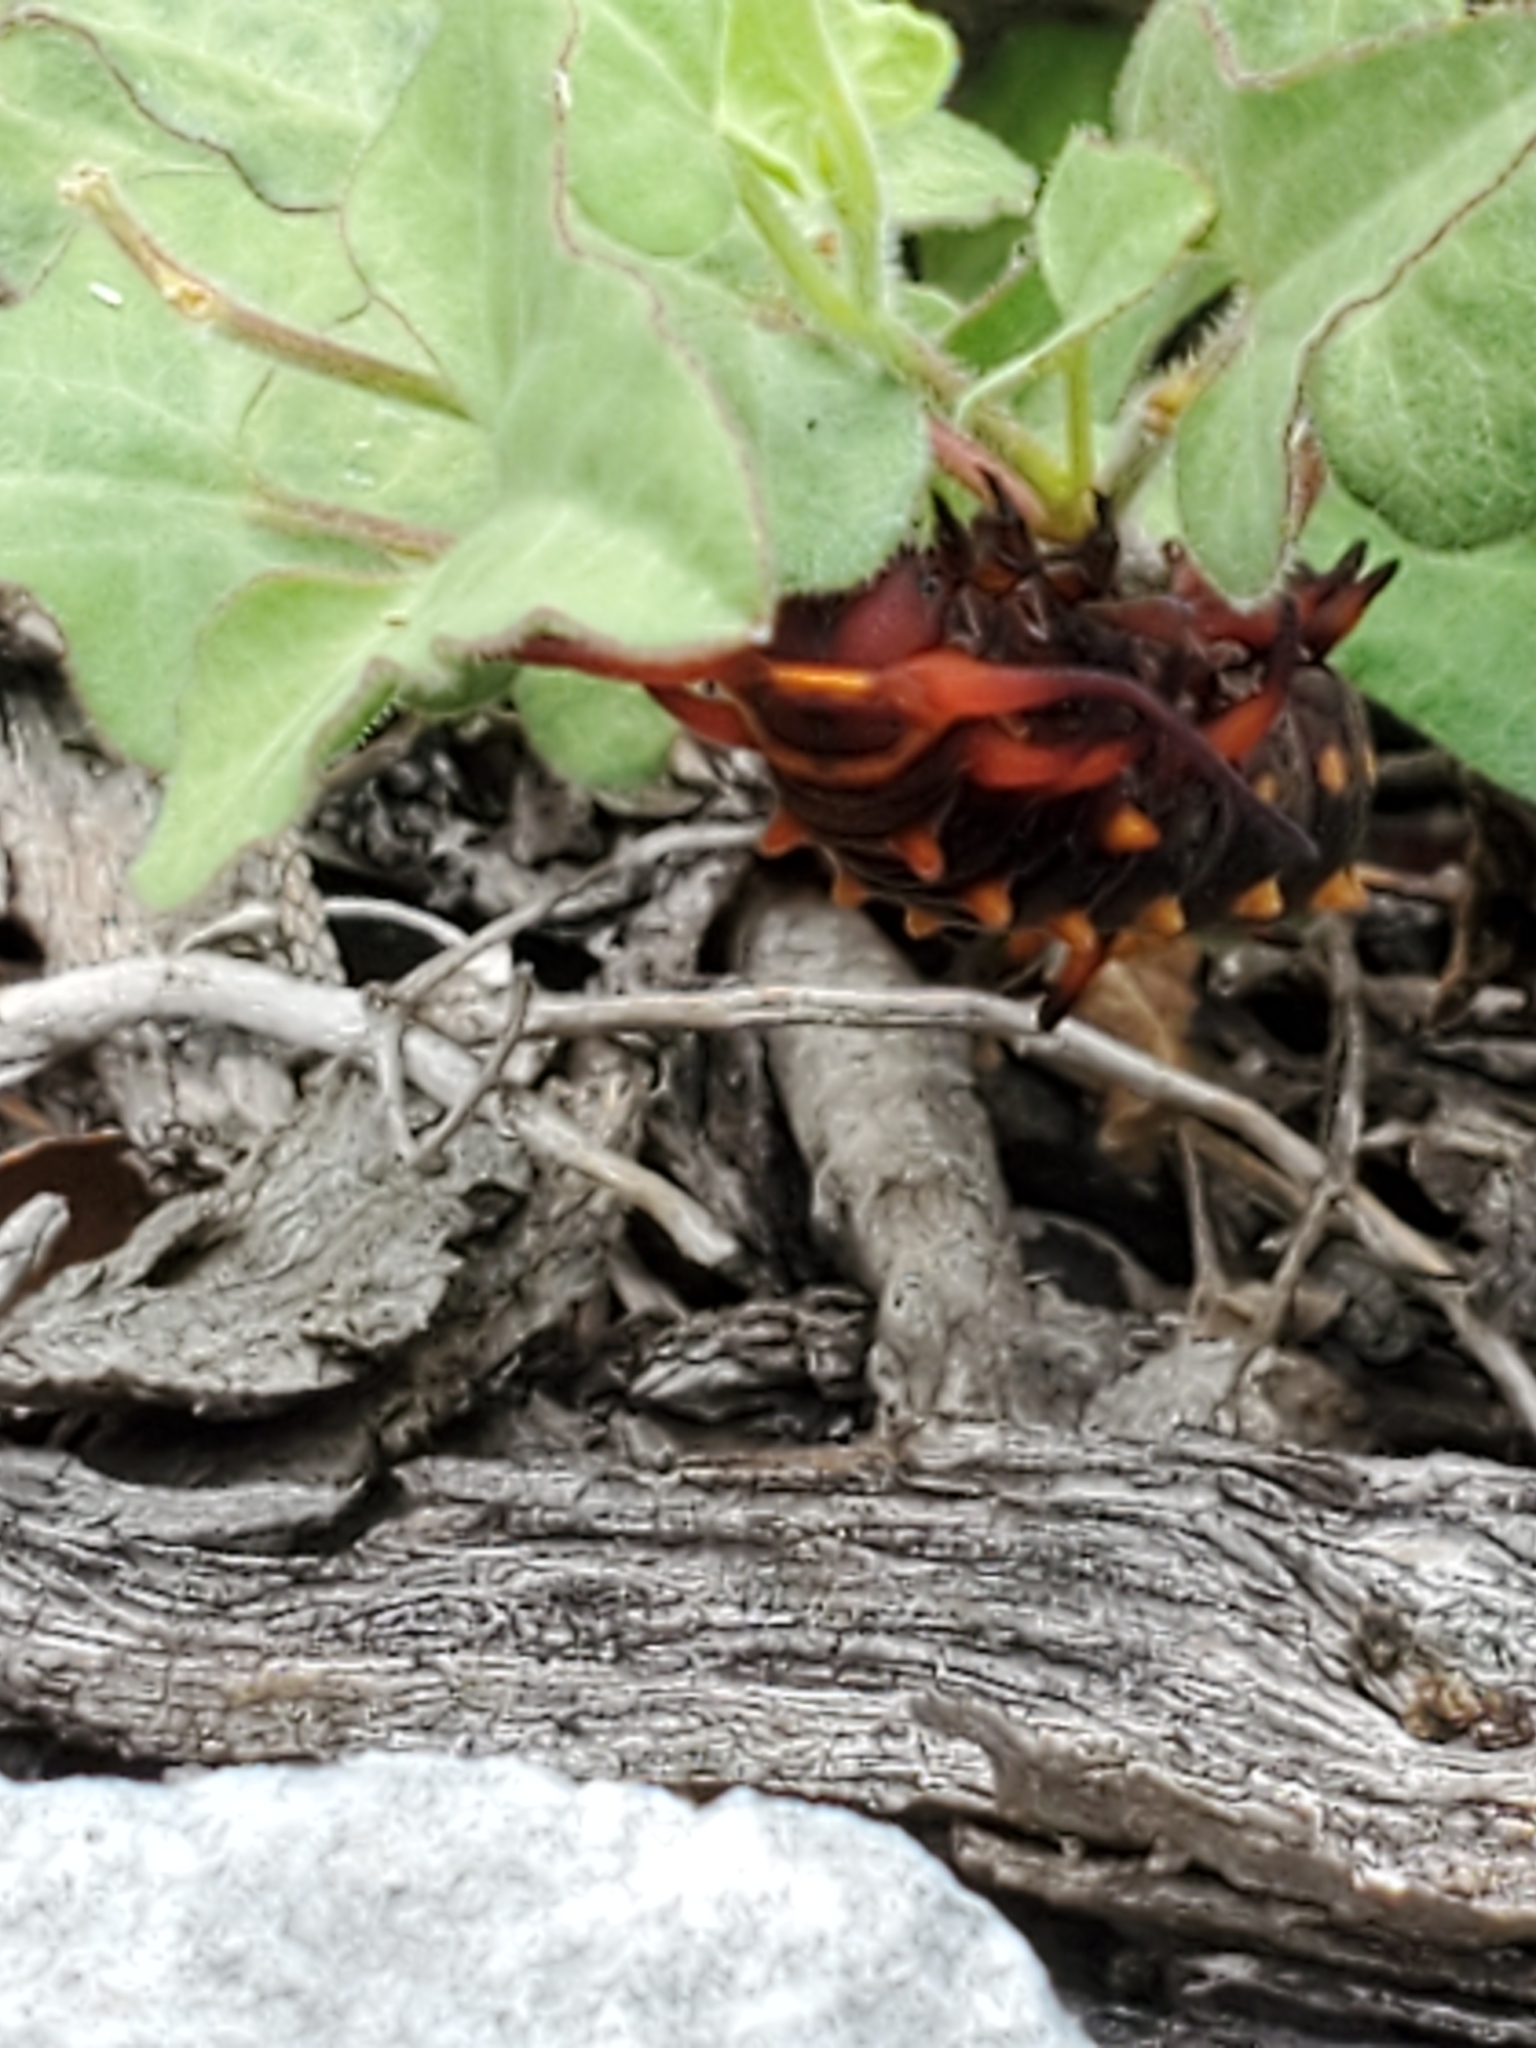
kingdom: Animalia
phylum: Arthropoda
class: Insecta
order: Lepidoptera
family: Papilionidae
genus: Battus
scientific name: Battus philenor
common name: Pipevine swallowtail
